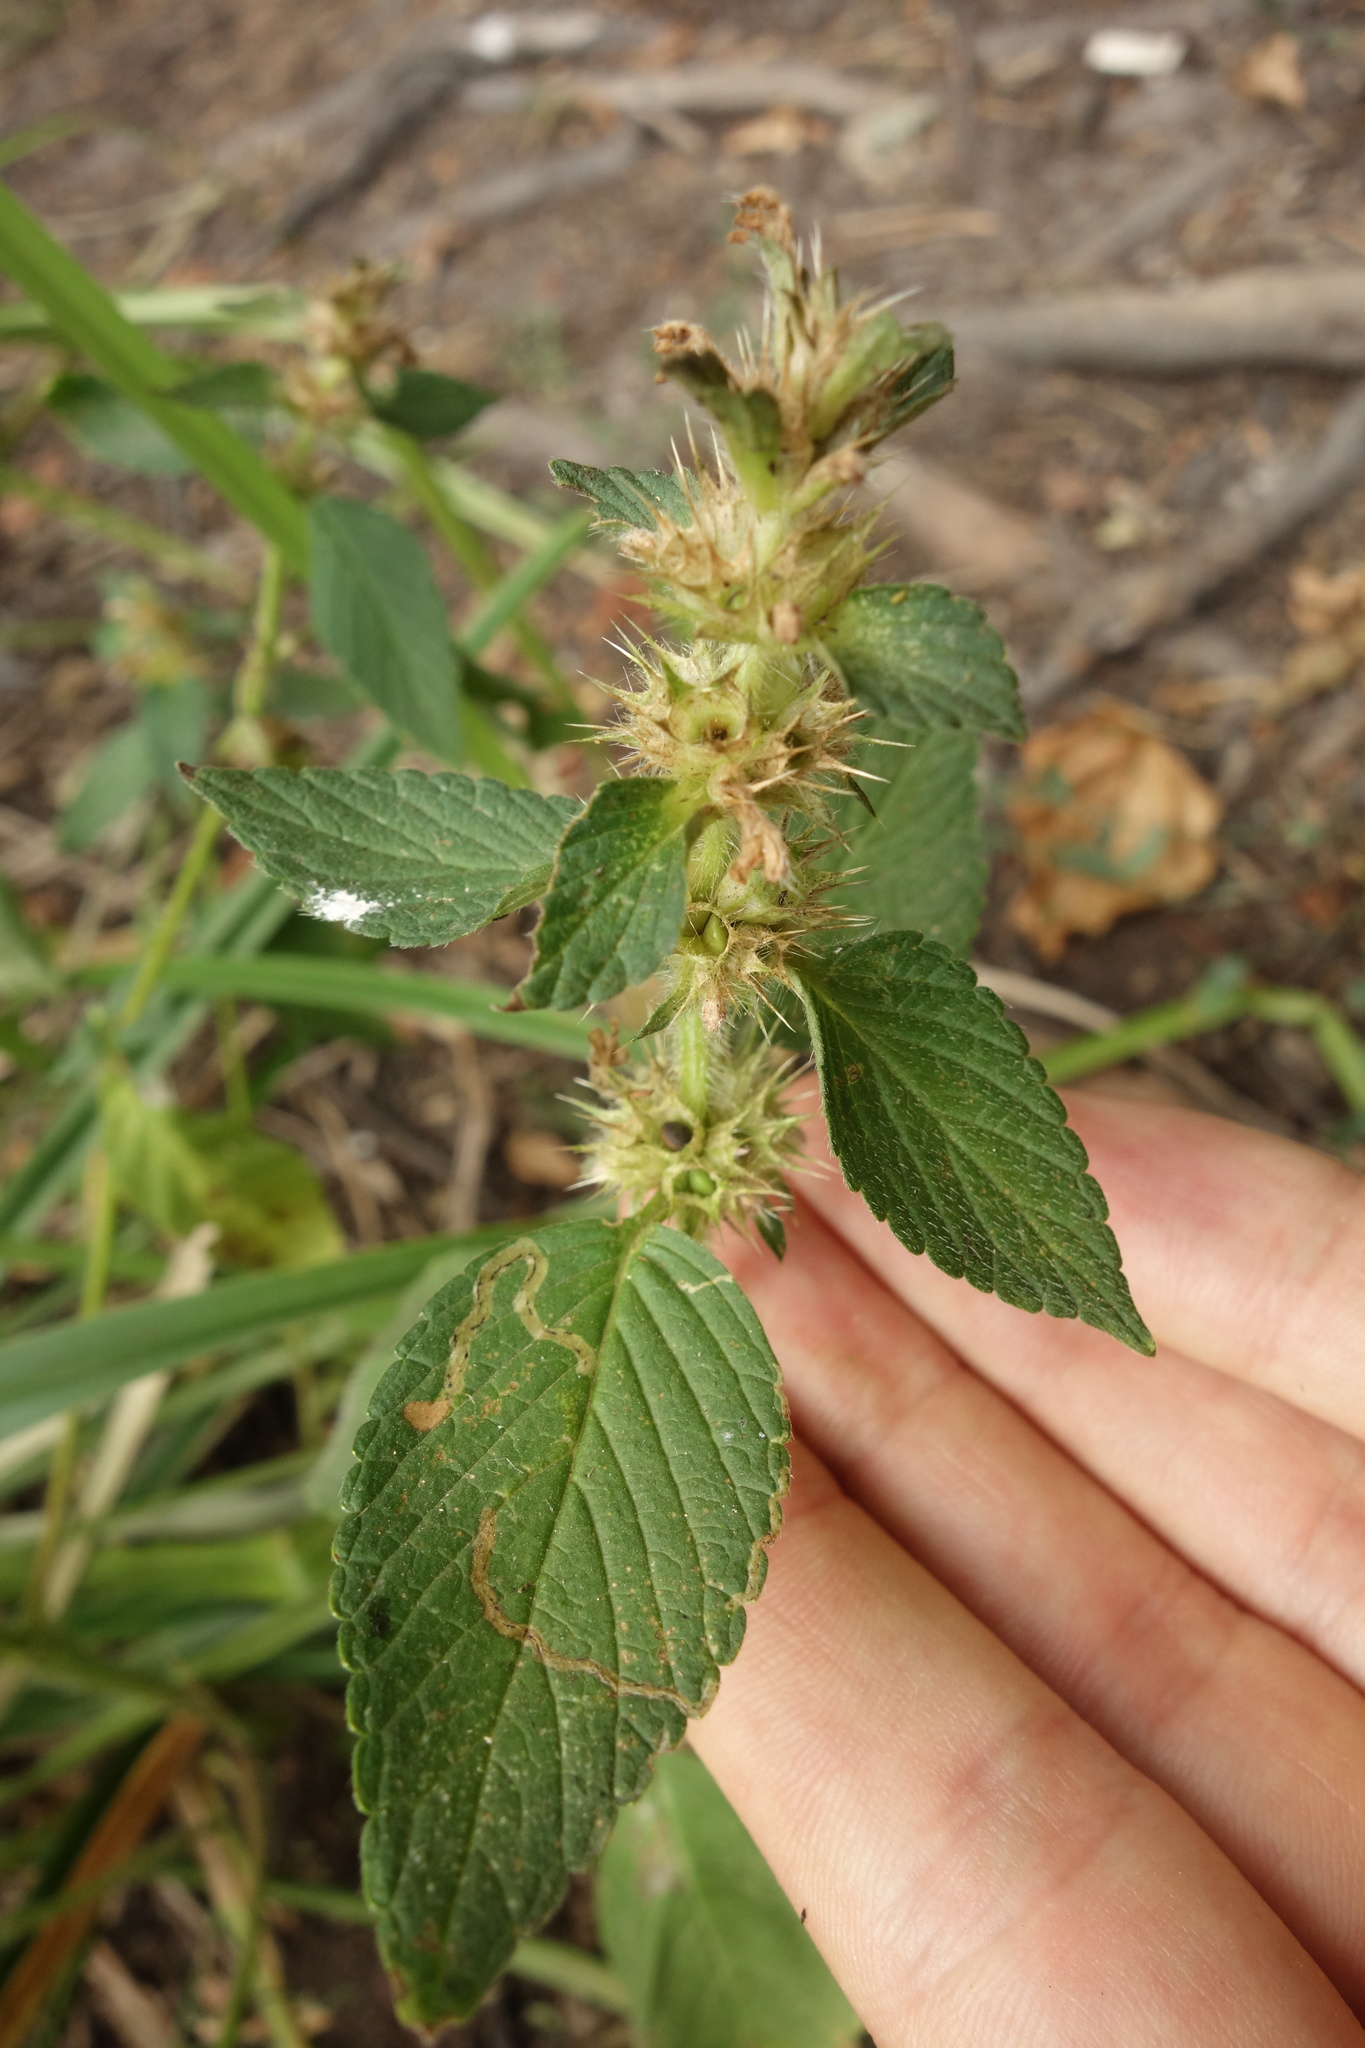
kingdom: Plantae
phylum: Tracheophyta
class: Magnoliopsida
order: Lamiales
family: Lamiaceae
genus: Galeopsis
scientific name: Galeopsis bifida
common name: Bifid hemp-nettle
